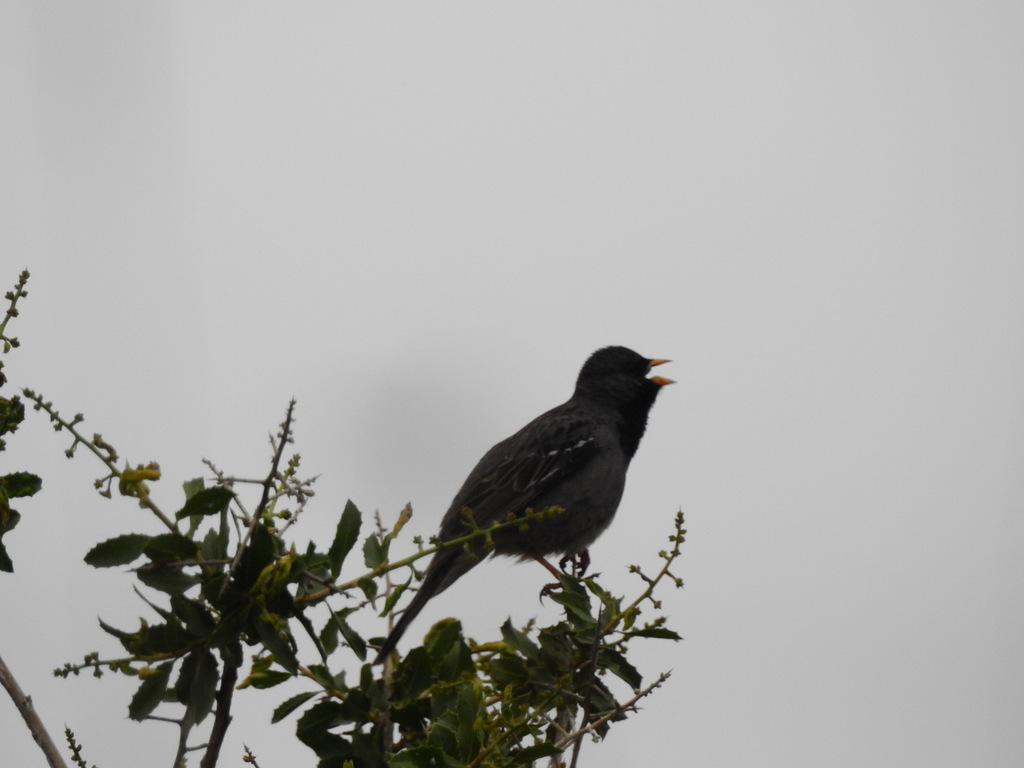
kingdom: Animalia
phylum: Chordata
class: Aves
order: Passeriformes
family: Thraupidae
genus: Rhopospina
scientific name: Rhopospina fruticeti
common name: Mourning sierra finch
